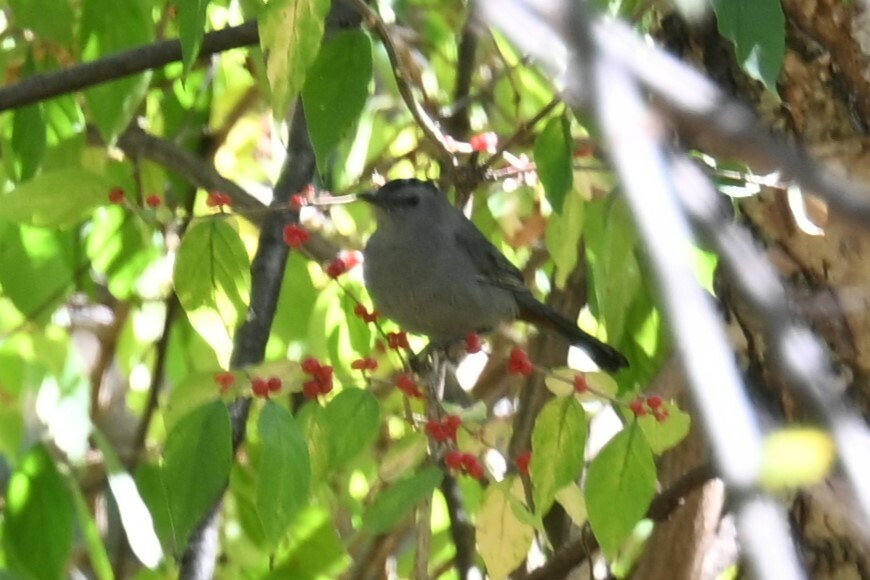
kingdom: Animalia
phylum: Chordata
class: Aves
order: Passeriformes
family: Mimidae
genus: Dumetella
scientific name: Dumetella carolinensis
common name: Gray catbird
